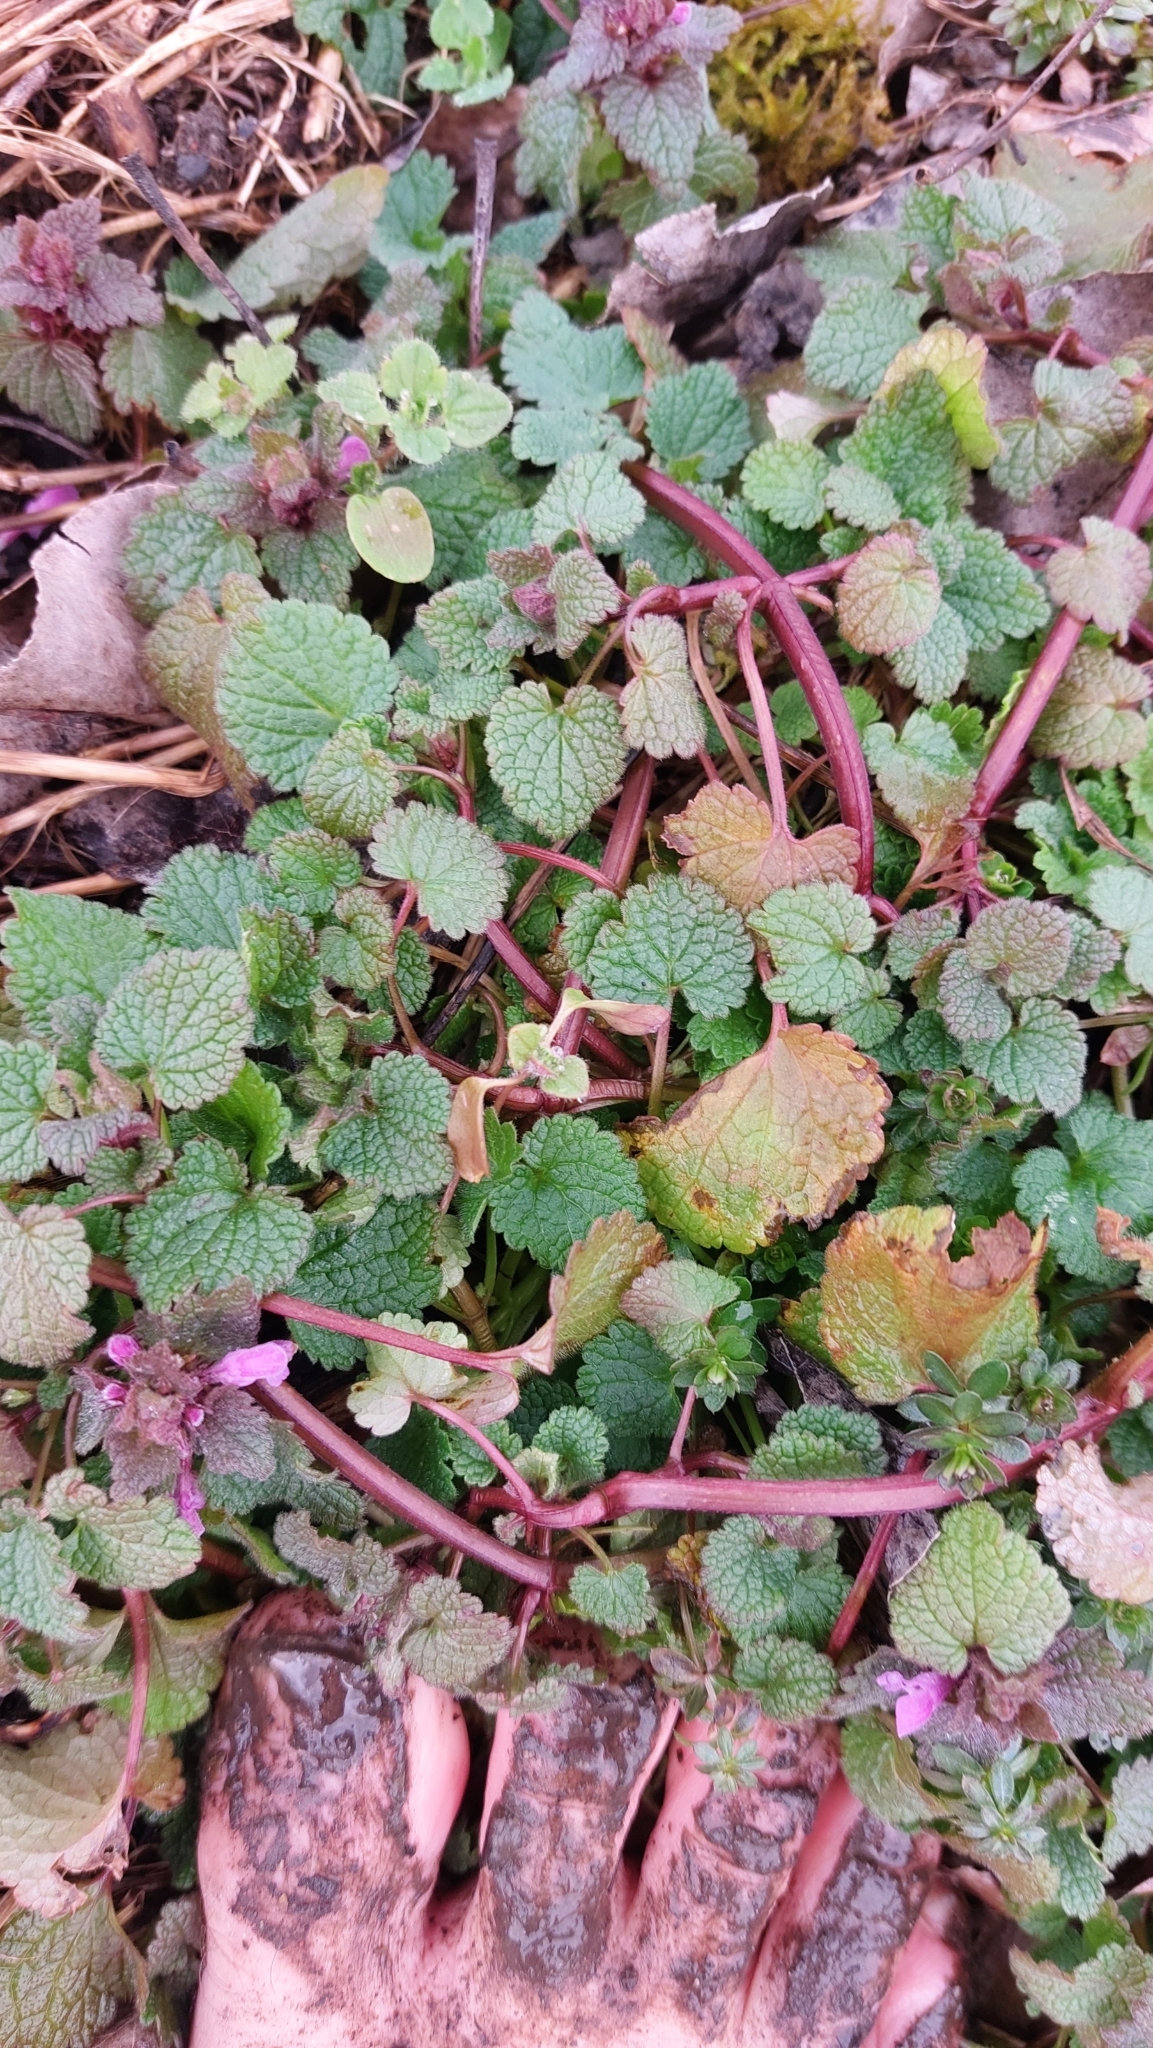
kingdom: Plantae
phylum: Tracheophyta
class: Magnoliopsida
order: Lamiales
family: Lamiaceae
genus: Lamium
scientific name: Lamium purpureum
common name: Red dead-nettle
